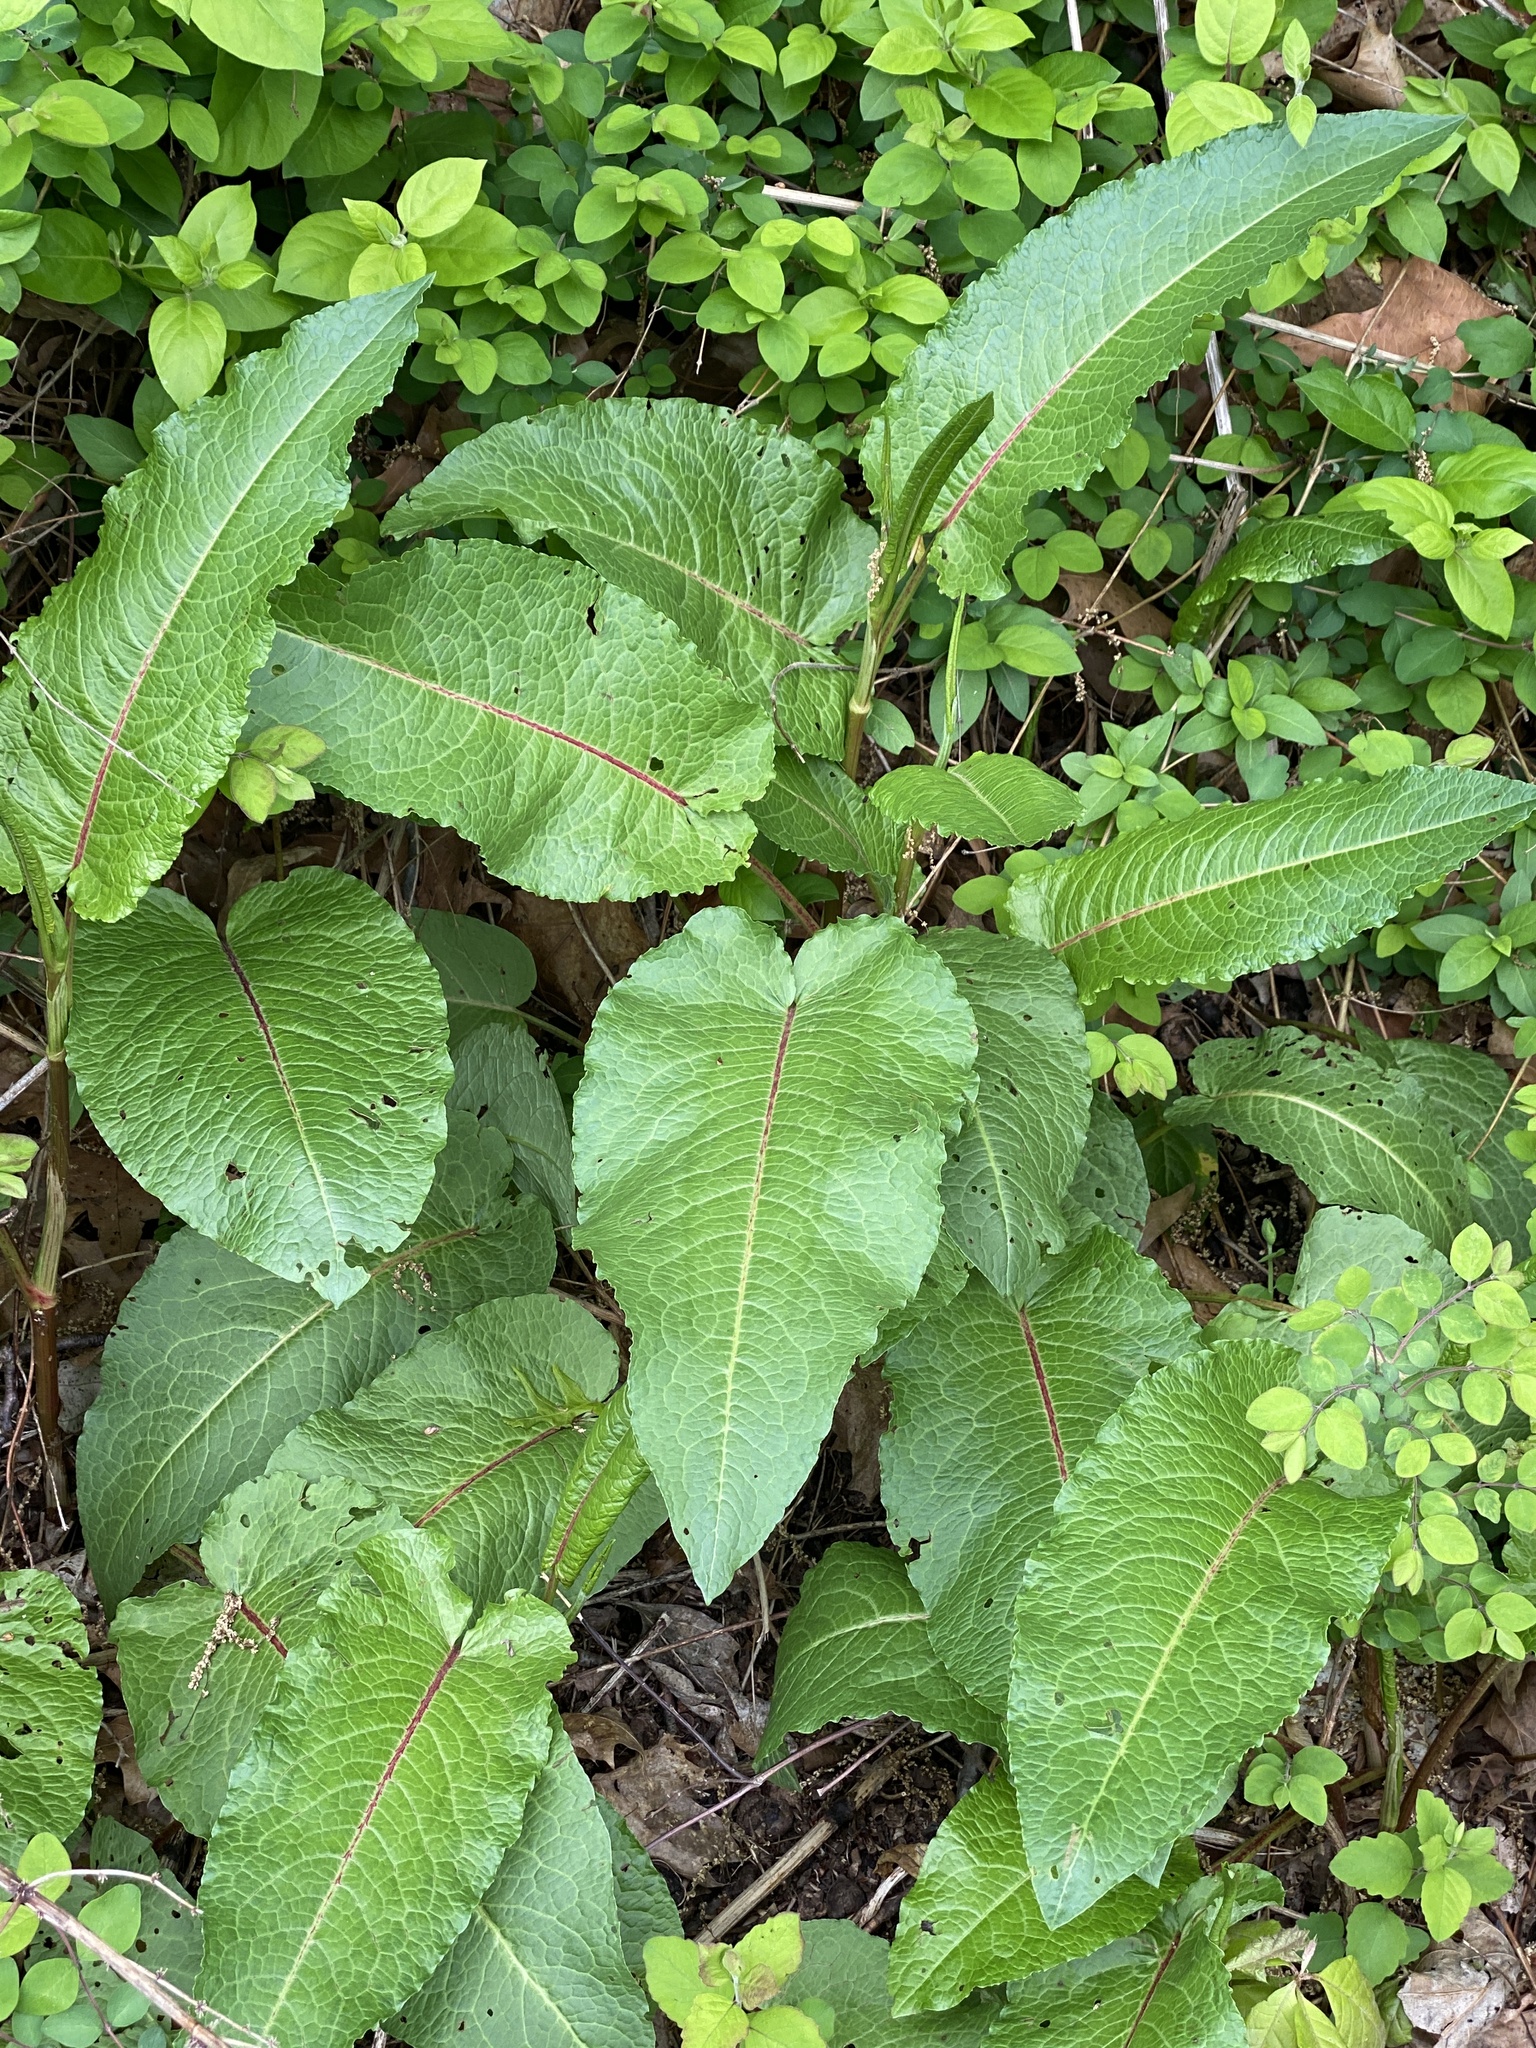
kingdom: Plantae
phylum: Tracheophyta
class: Magnoliopsida
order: Caryophyllales
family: Polygonaceae
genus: Rumex
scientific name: Rumex obtusifolius
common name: Bitter dock
